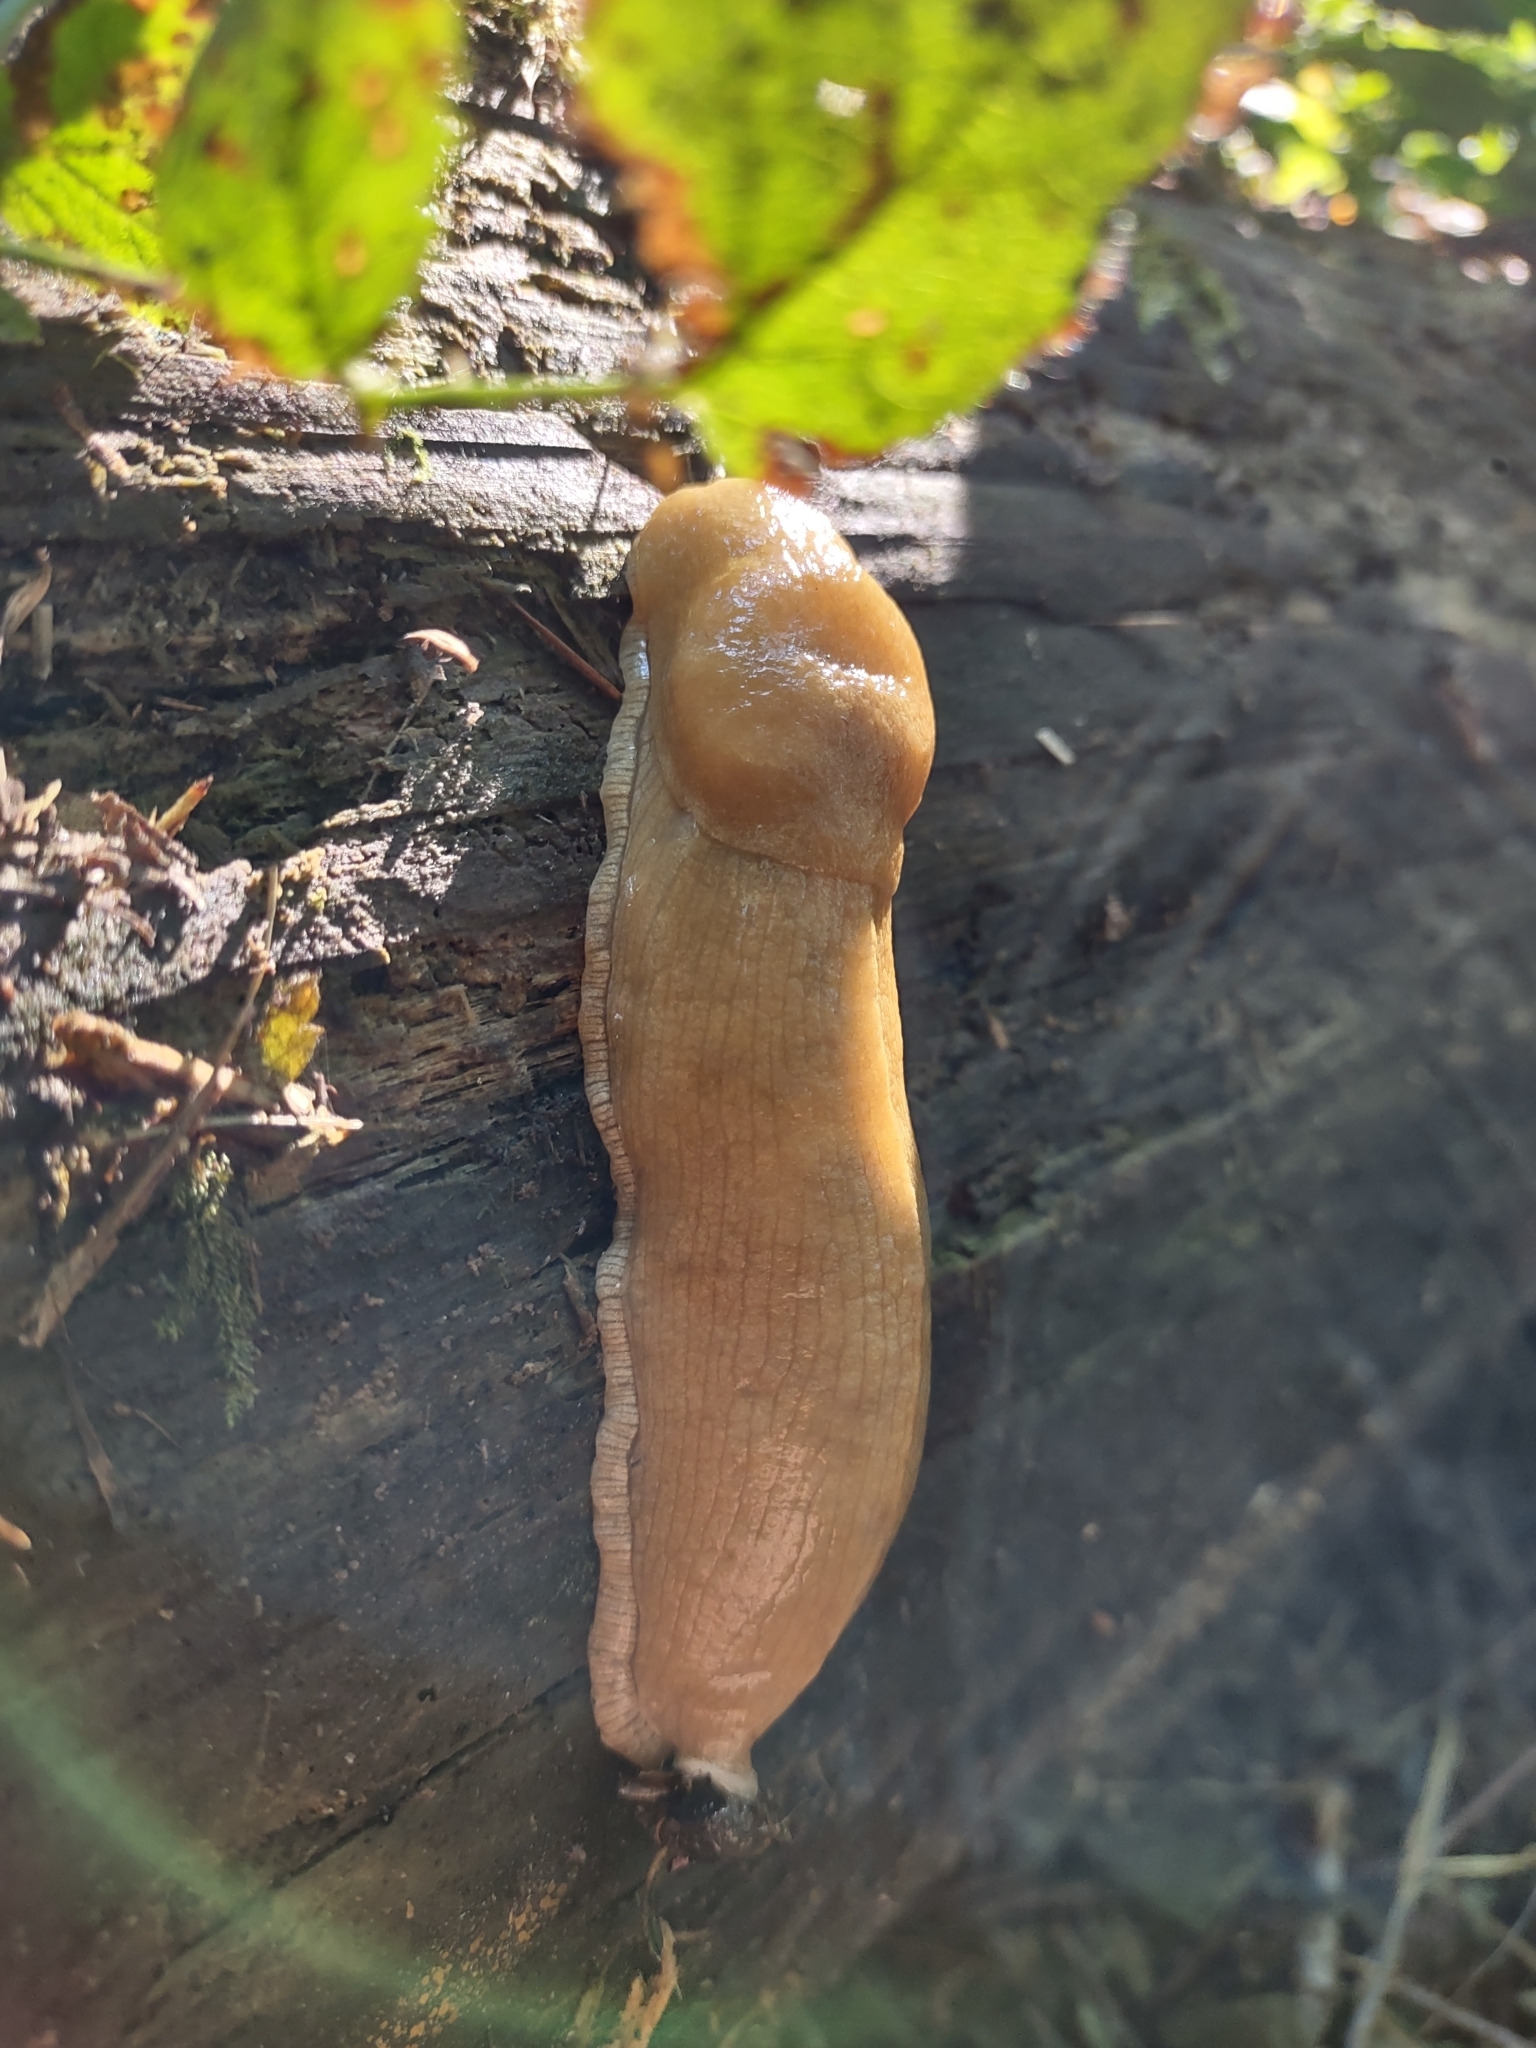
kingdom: Animalia
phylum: Mollusca
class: Gastropoda
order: Stylommatophora
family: Ariolimacidae
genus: Ariolimax
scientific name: Ariolimax columbianus
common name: Pacific banana slug
